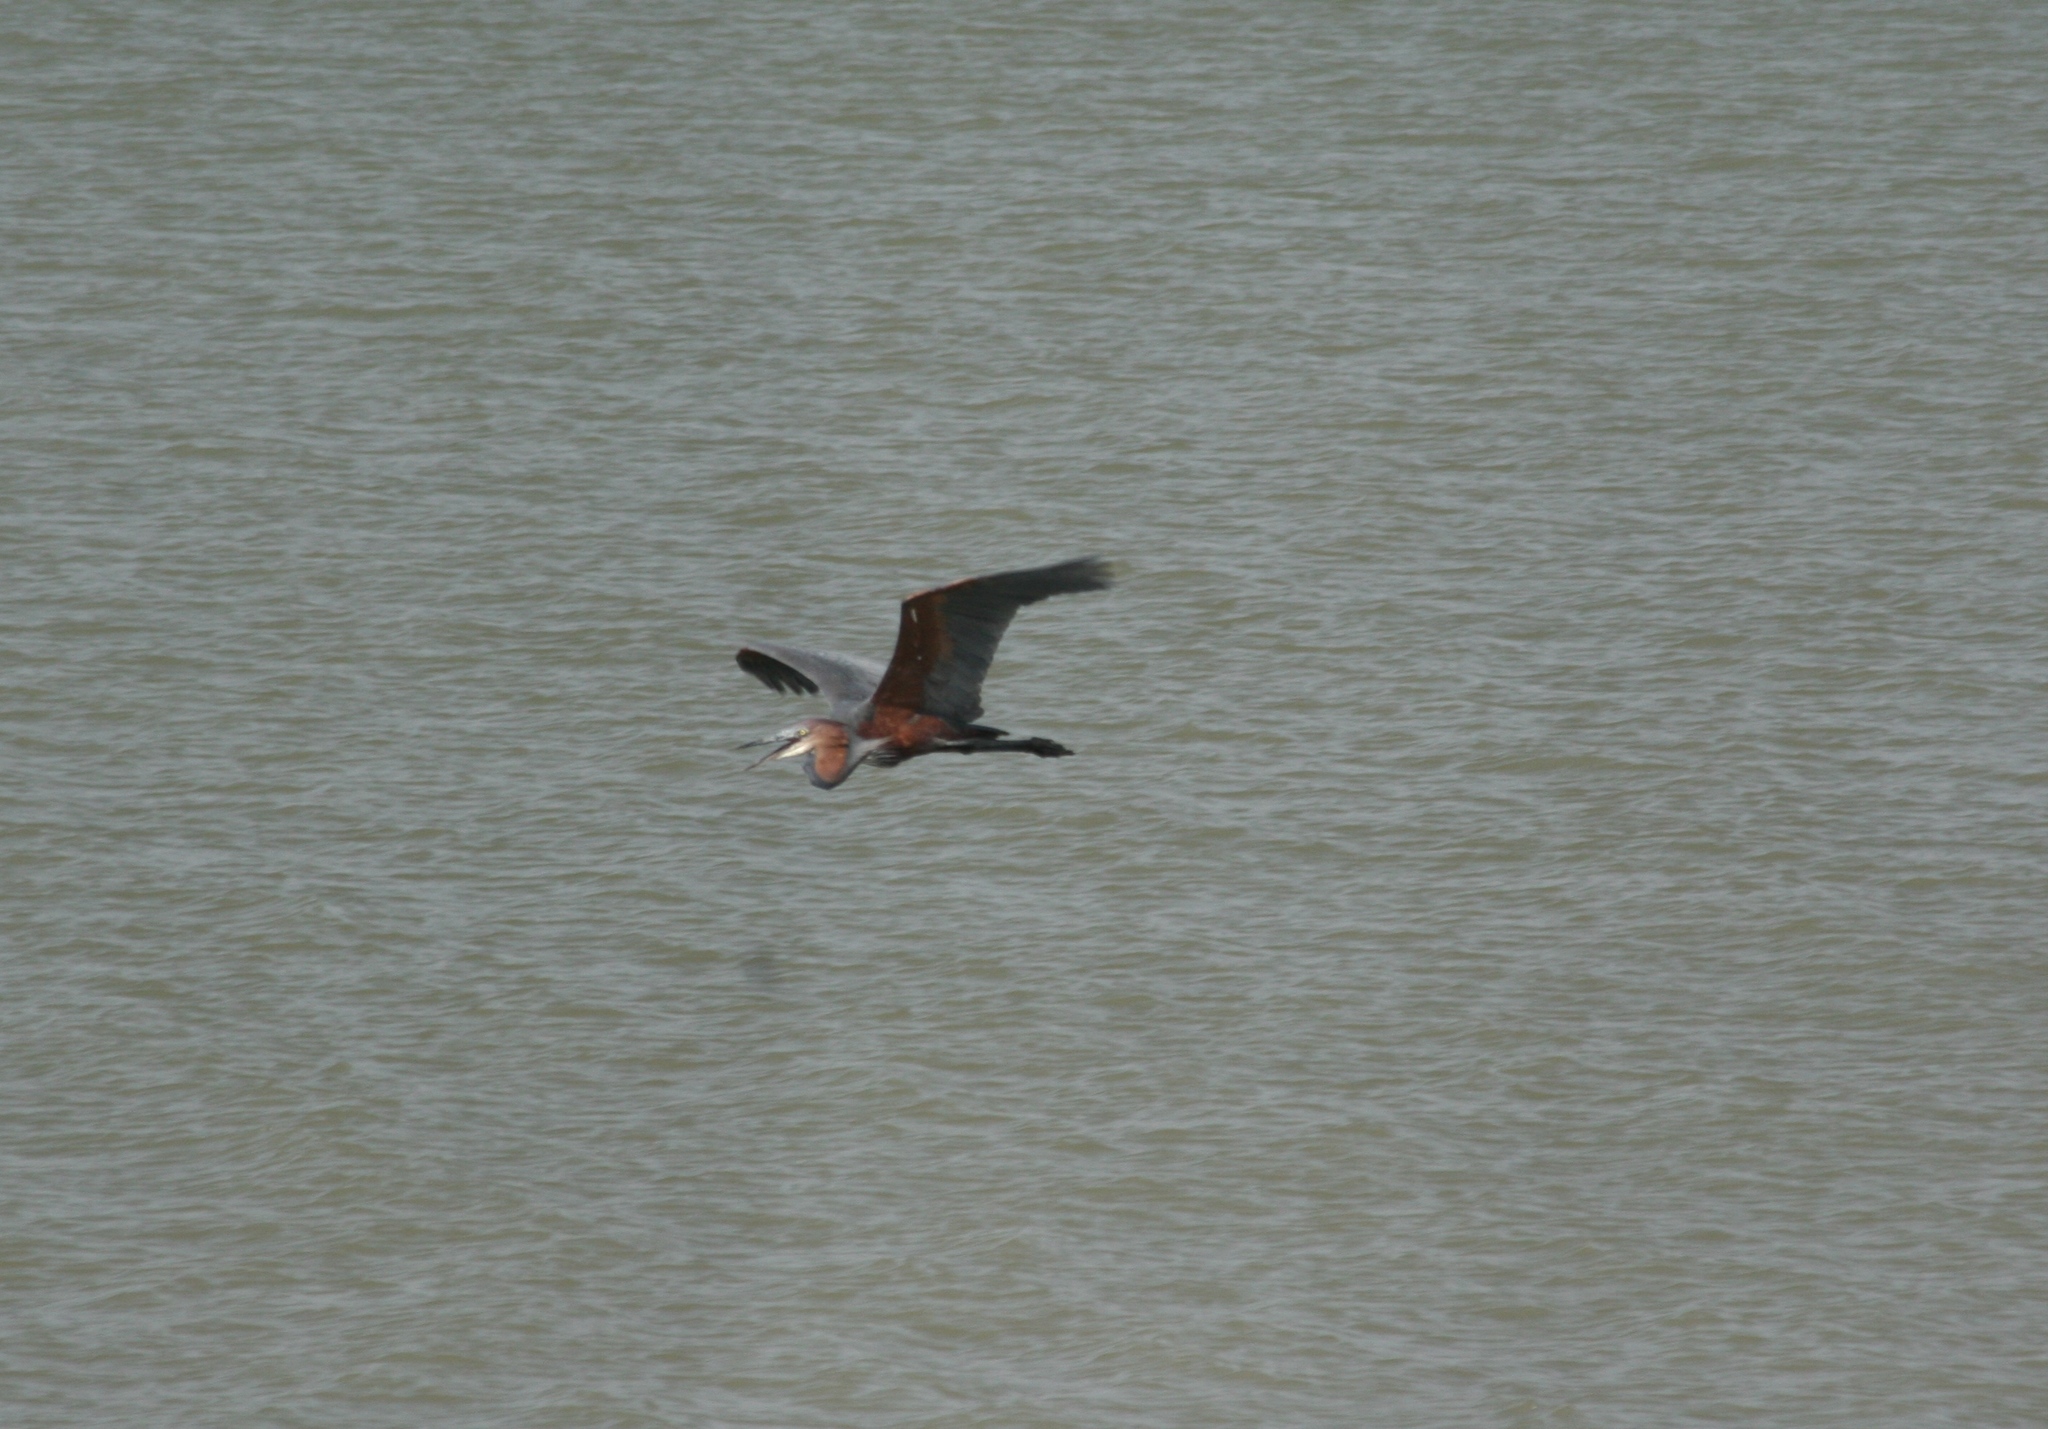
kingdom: Animalia
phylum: Chordata
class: Aves
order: Pelecaniformes
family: Ardeidae
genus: Ardea
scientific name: Ardea goliath
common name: Goliath heron
